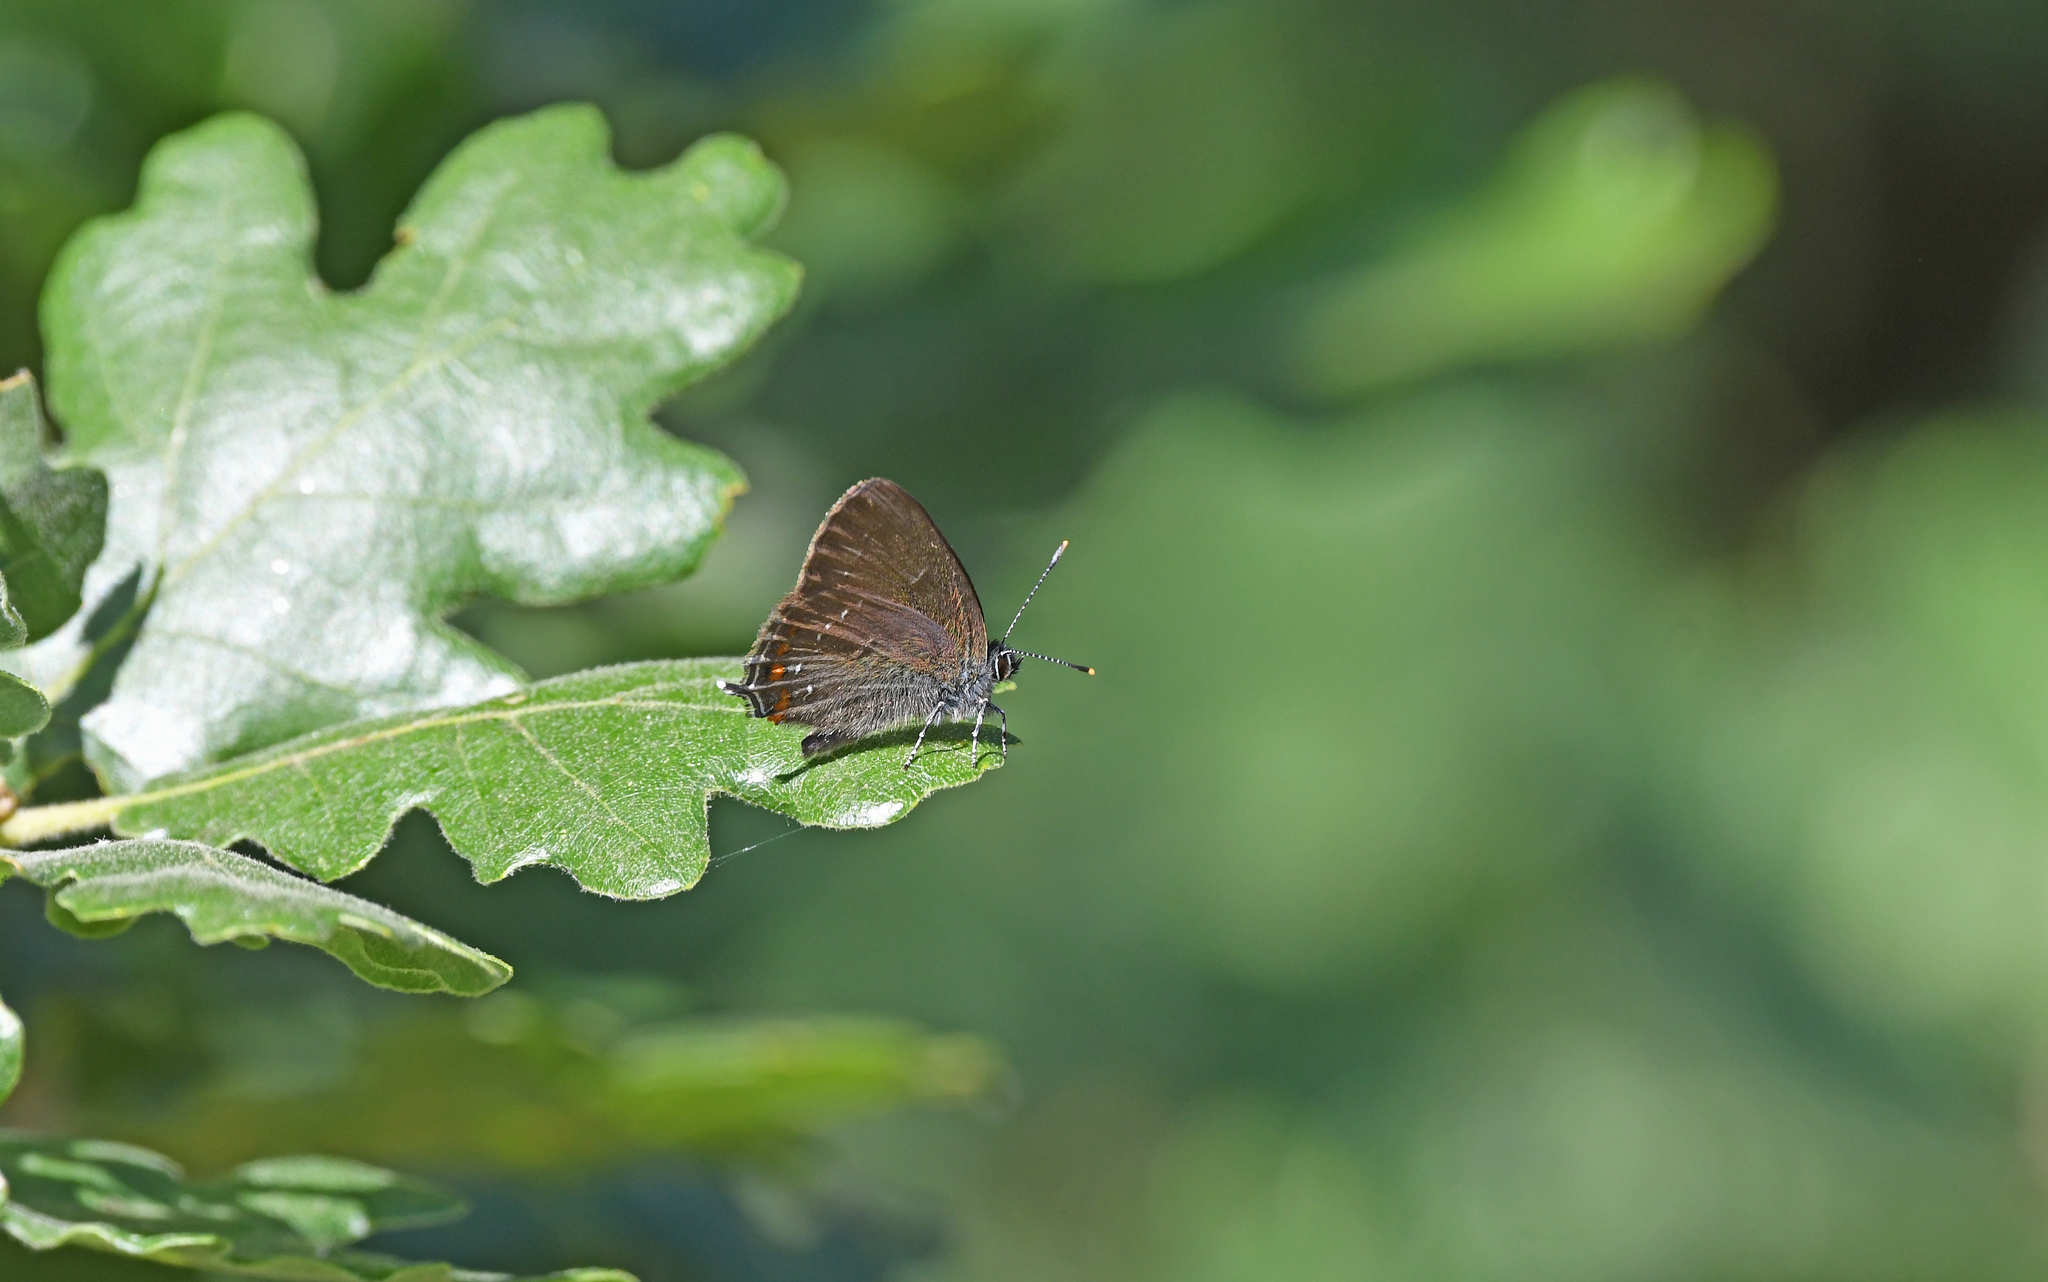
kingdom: Animalia
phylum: Arthropoda
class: Insecta
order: Lepidoptera
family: Lycaenidae
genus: Nordmannia
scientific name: Nordmannia ilicis
